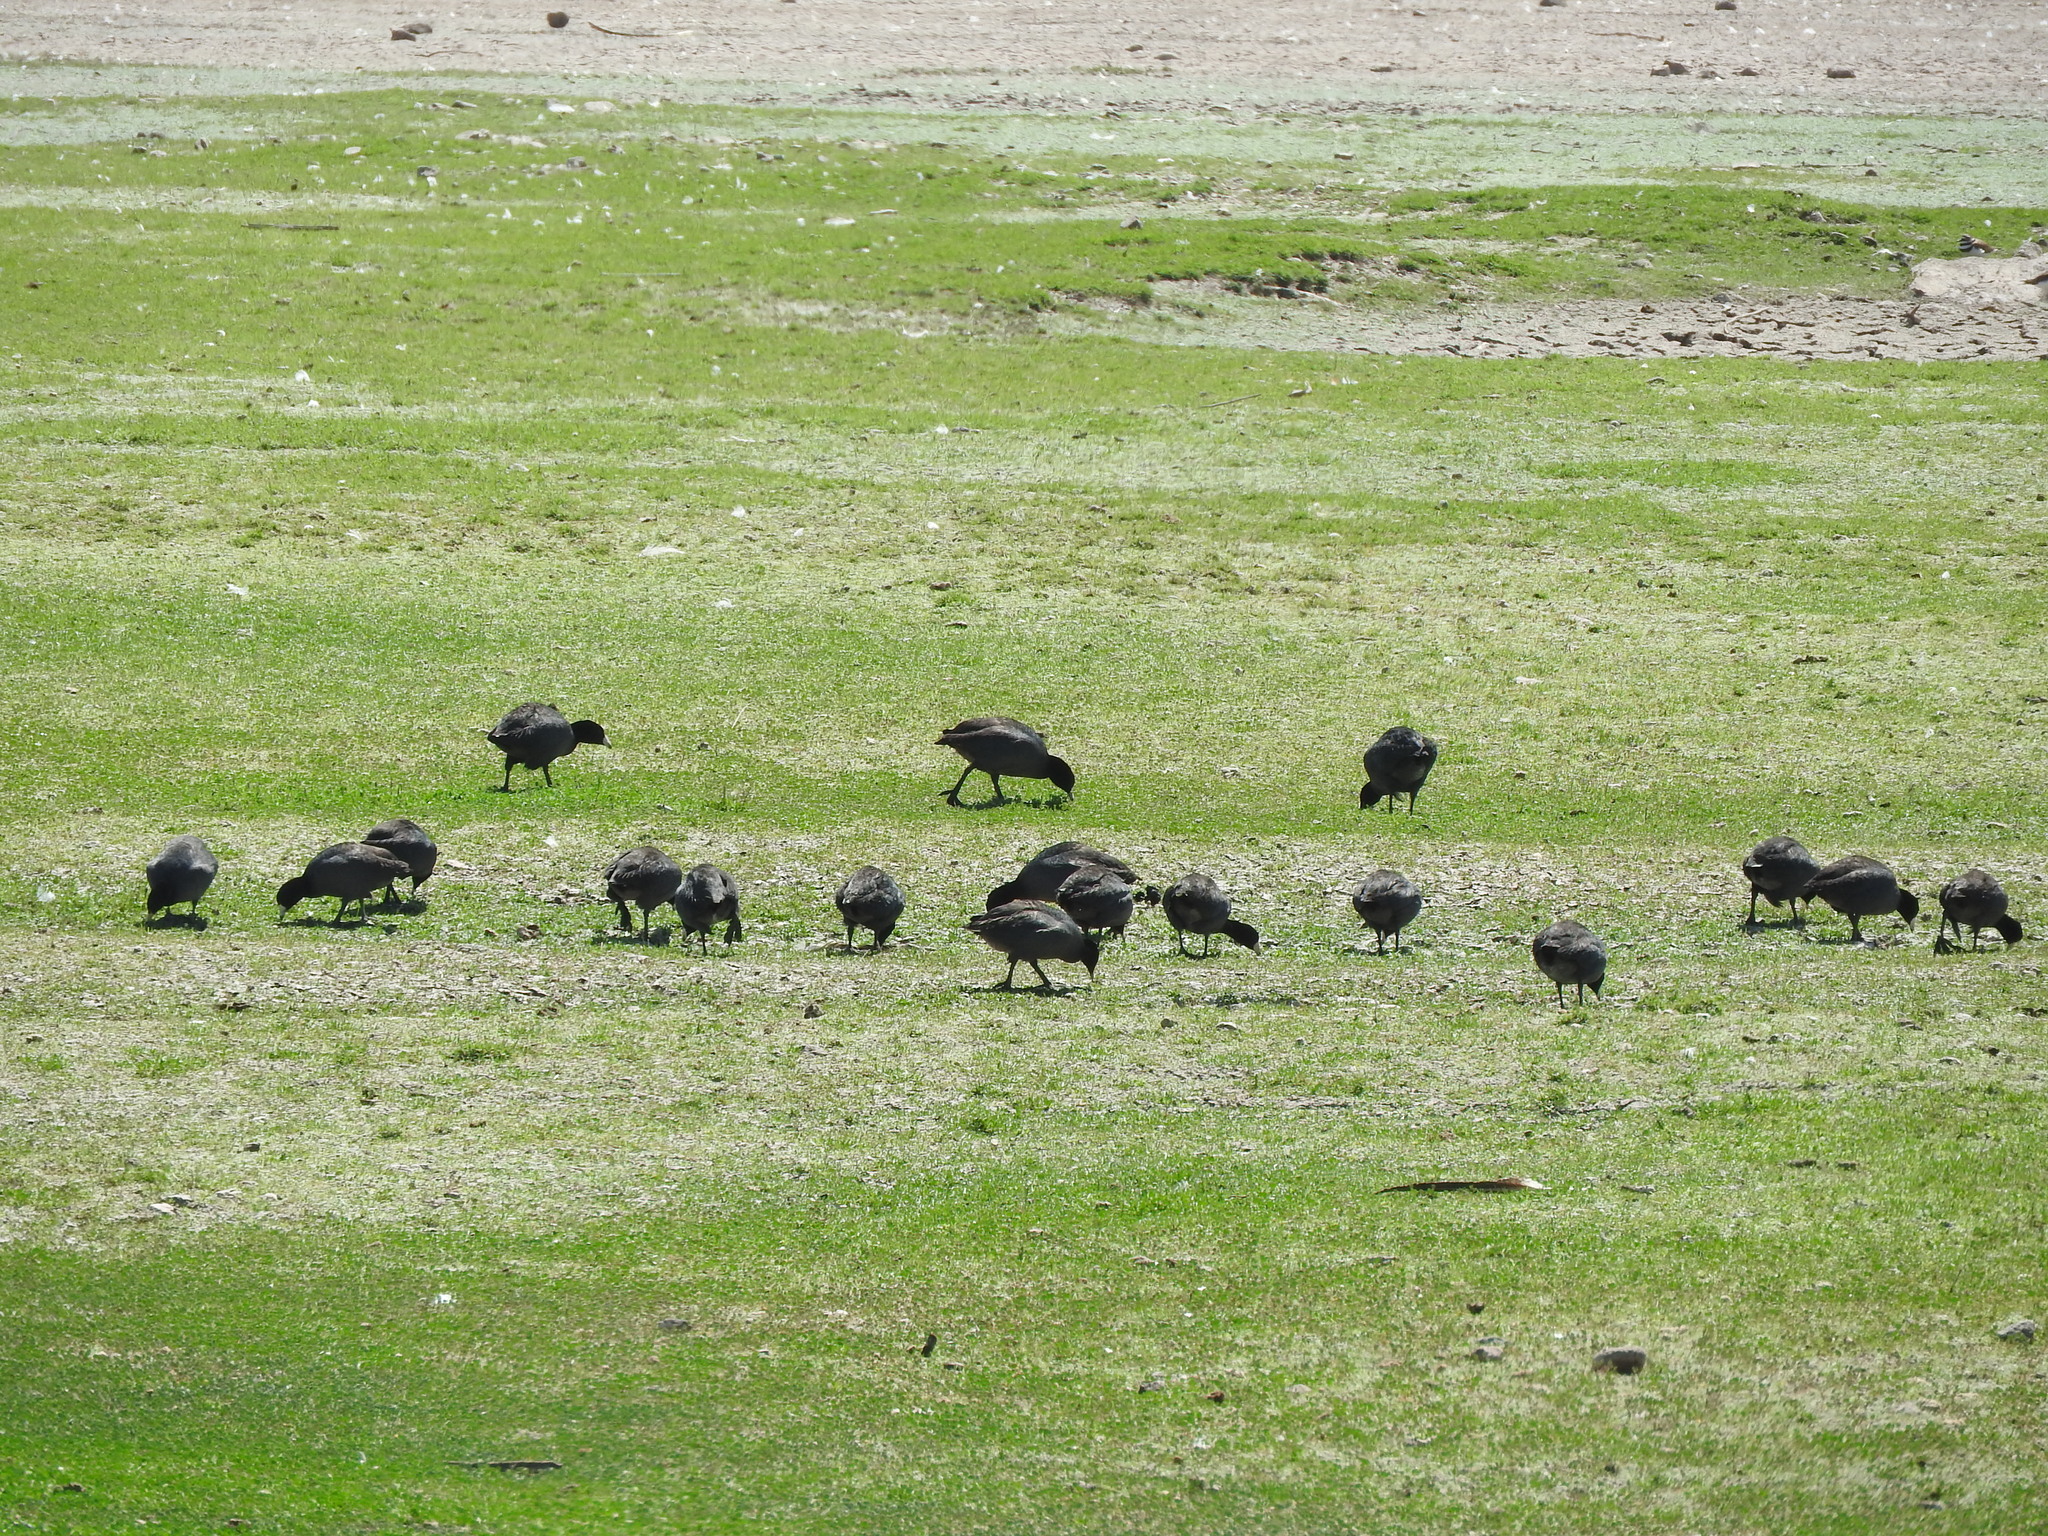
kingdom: Animalia
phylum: Chordata
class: Aves
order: Gruiformes
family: Rallidae
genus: Fulica
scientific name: Fulica americana
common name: American coot
